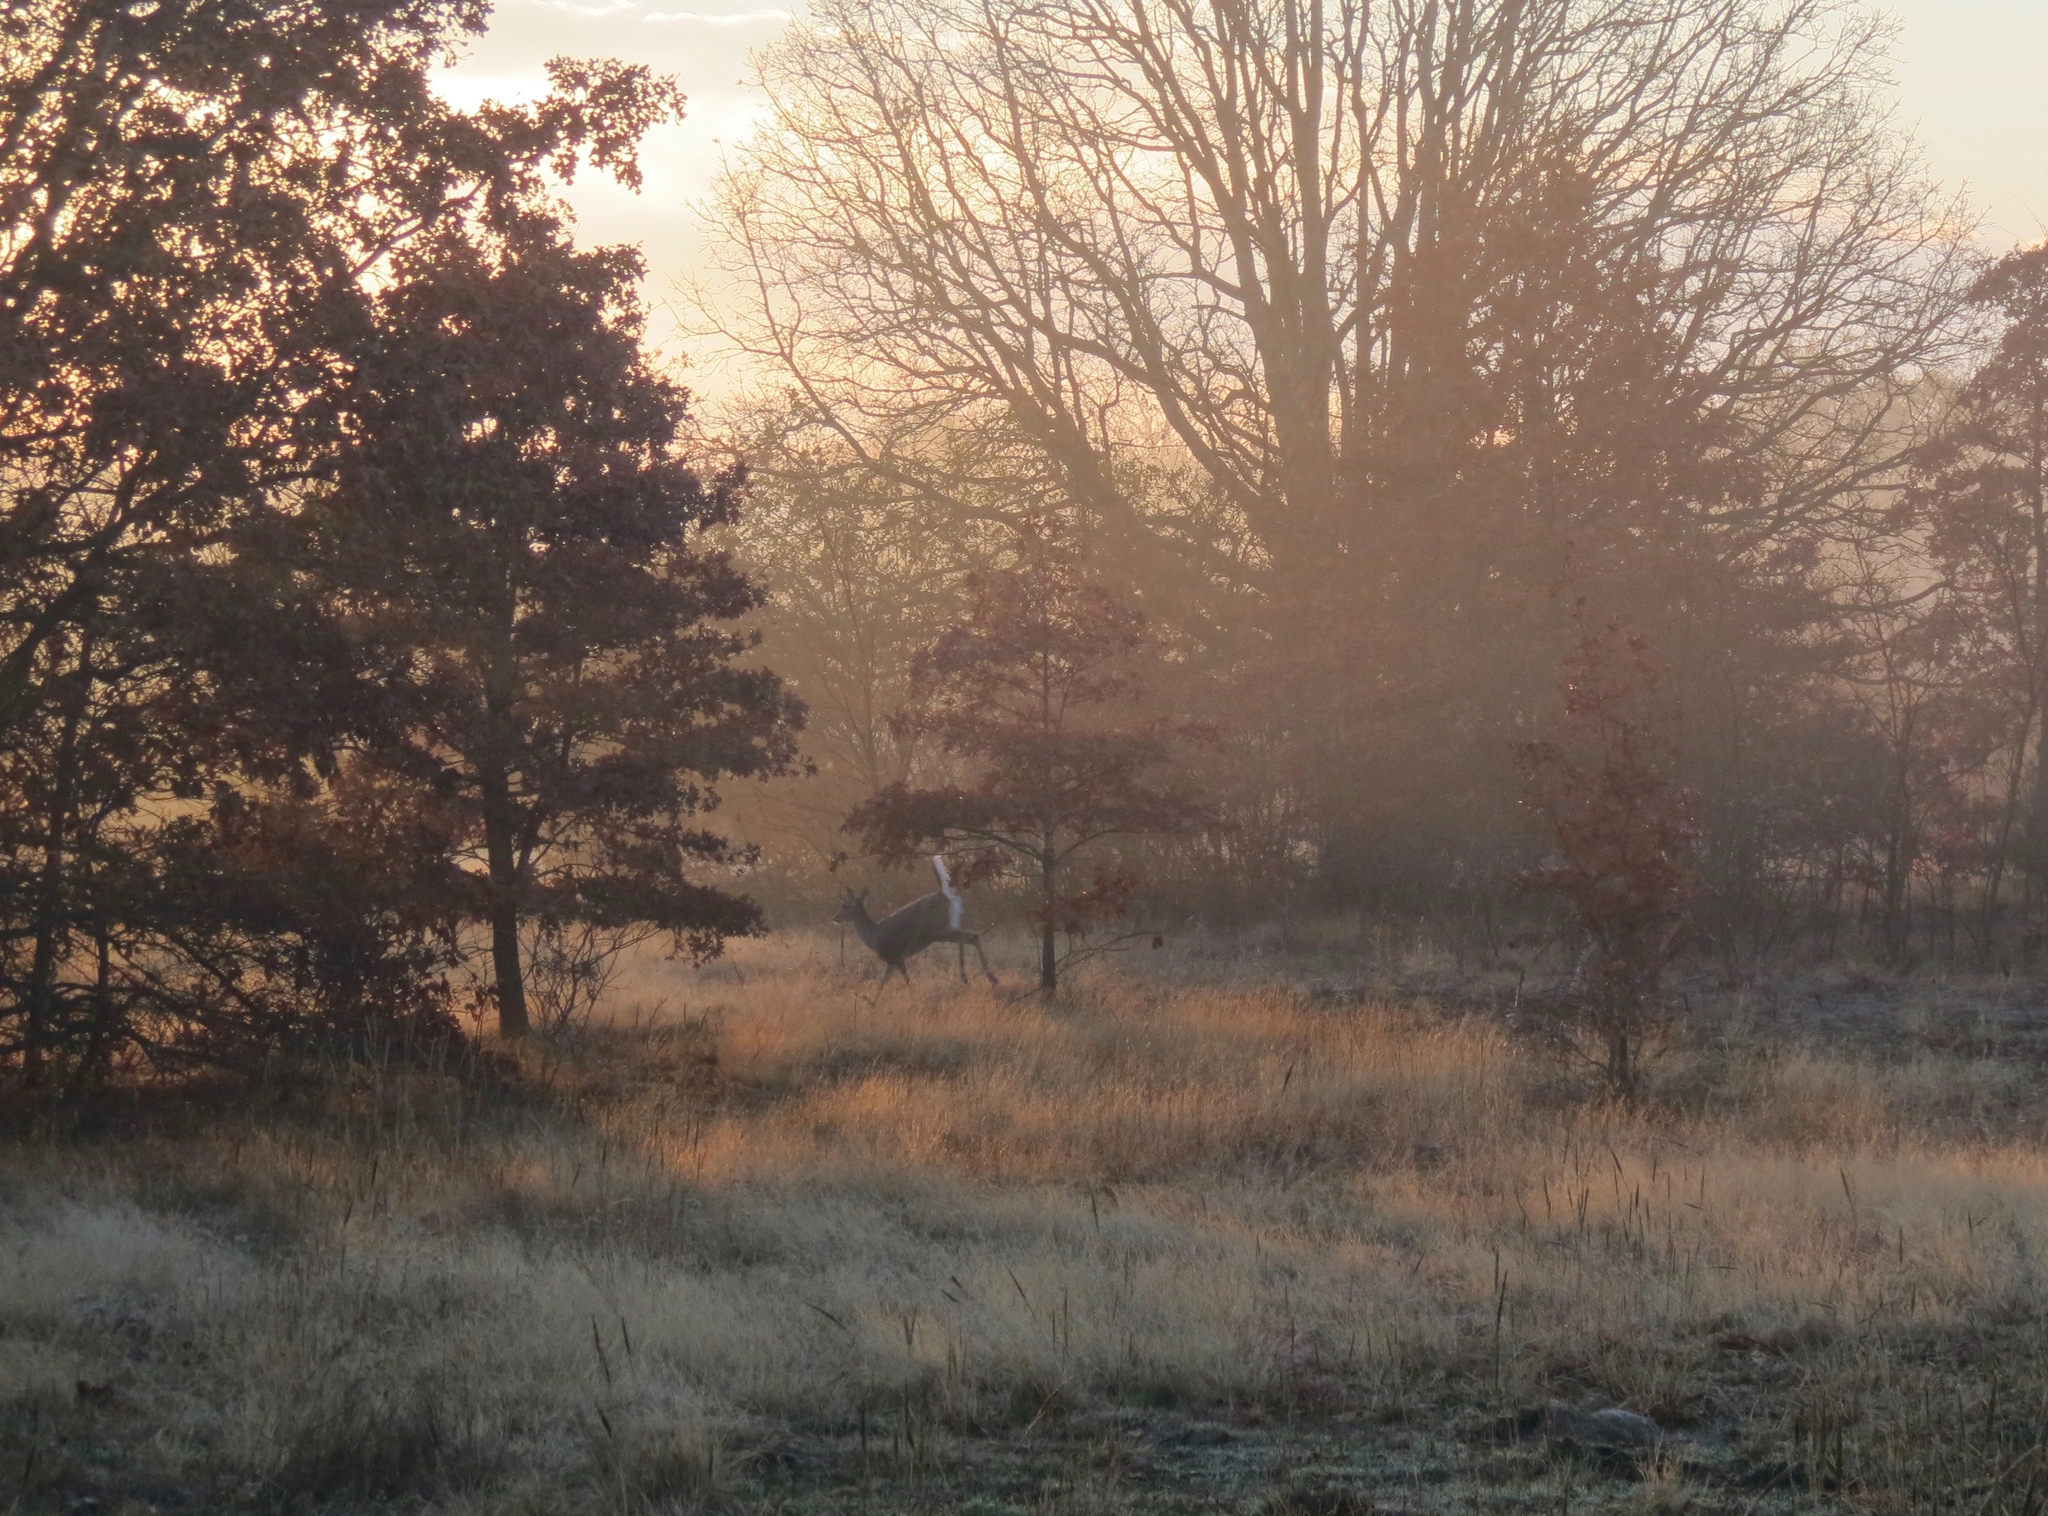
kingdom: Animalia
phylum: Chordata
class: Mammalia
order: Artiodactyla
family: Cervidae
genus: Odocoileus
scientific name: Odocoileus virginianus
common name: White-tailed deer
